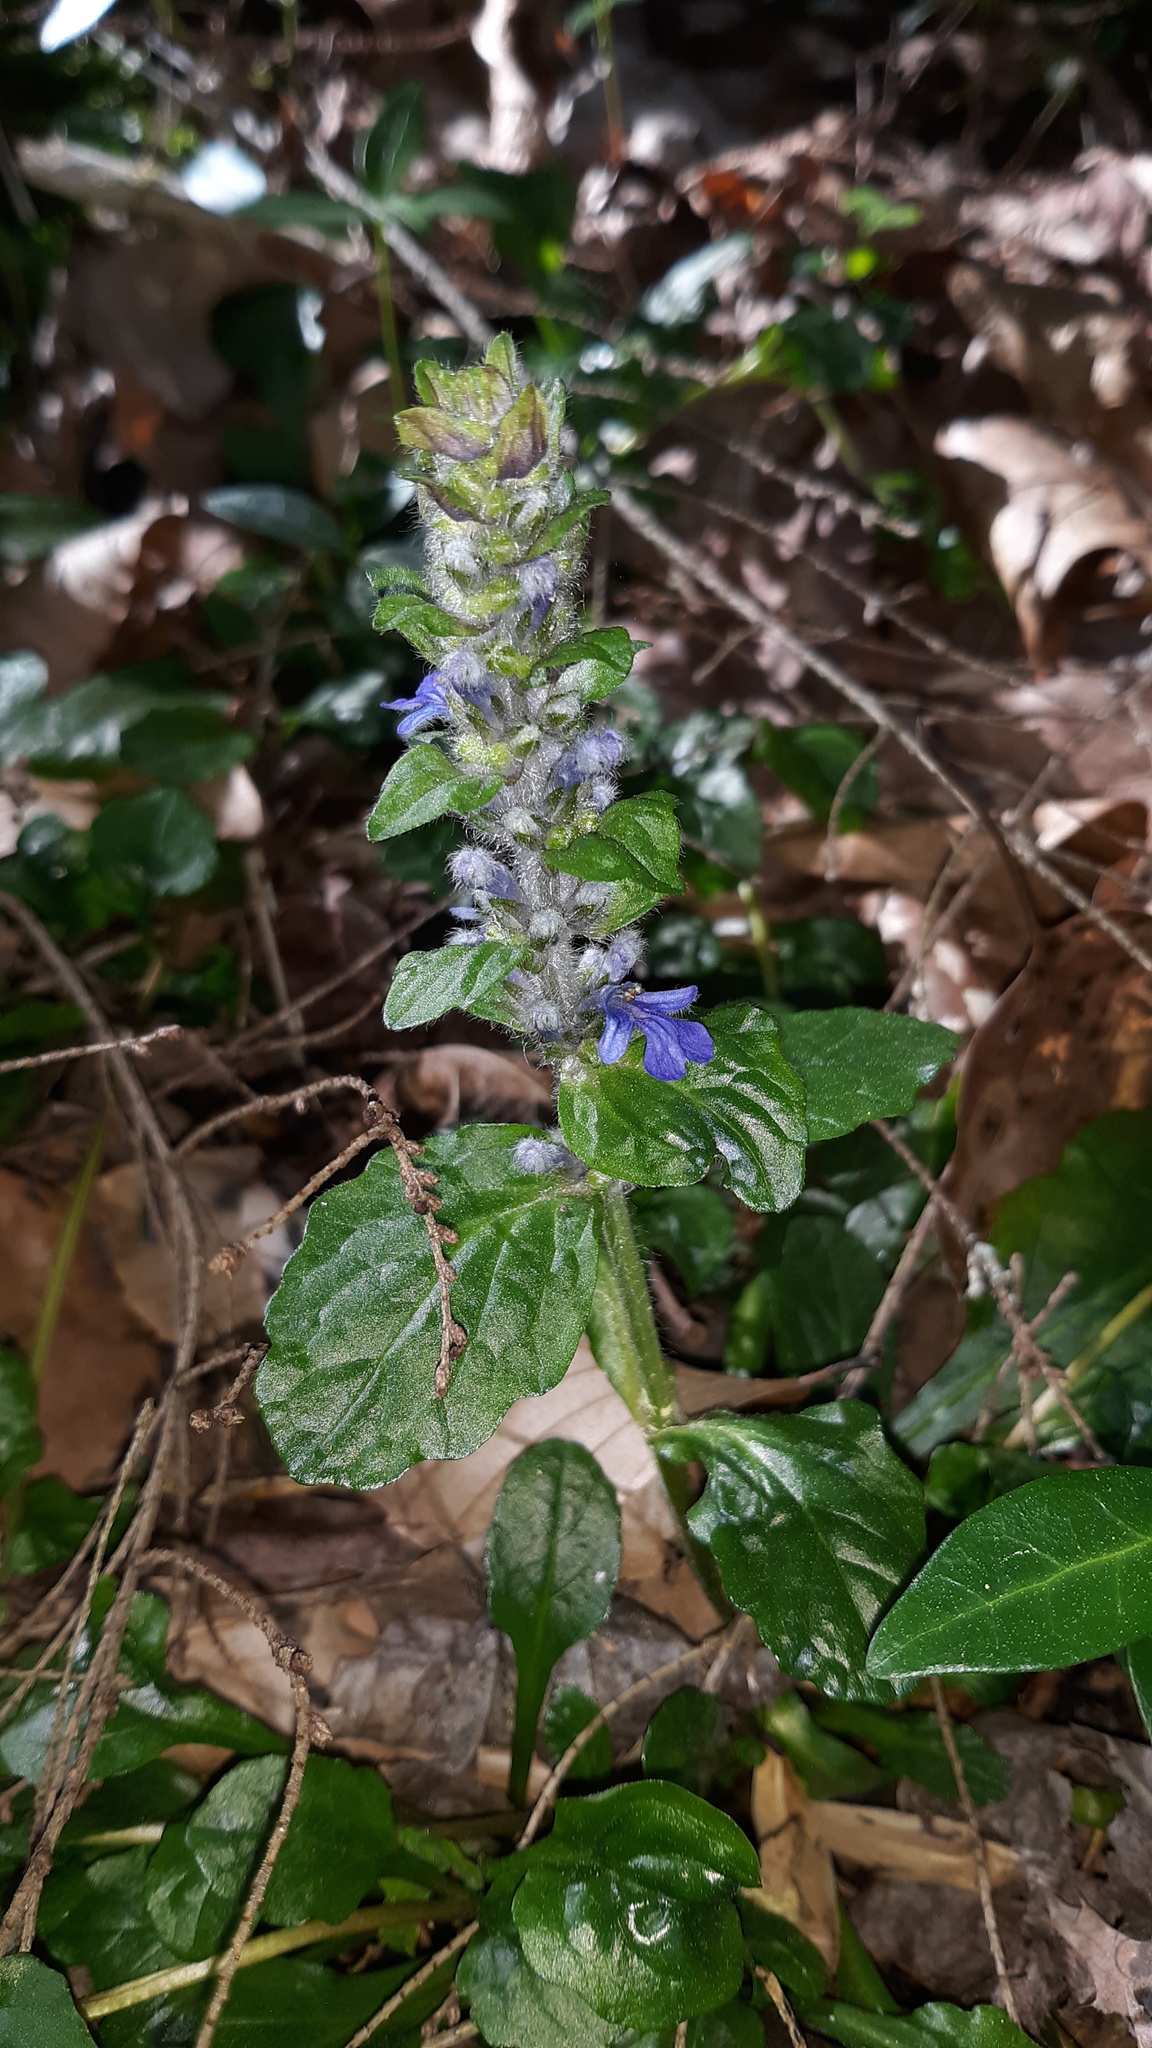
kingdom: Plantae
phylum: Tracheophyta
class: Magnoliopsida
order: Lamiales
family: Lamiaceae
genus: Ajuga
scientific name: Ajuga reptans
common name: Bugle
